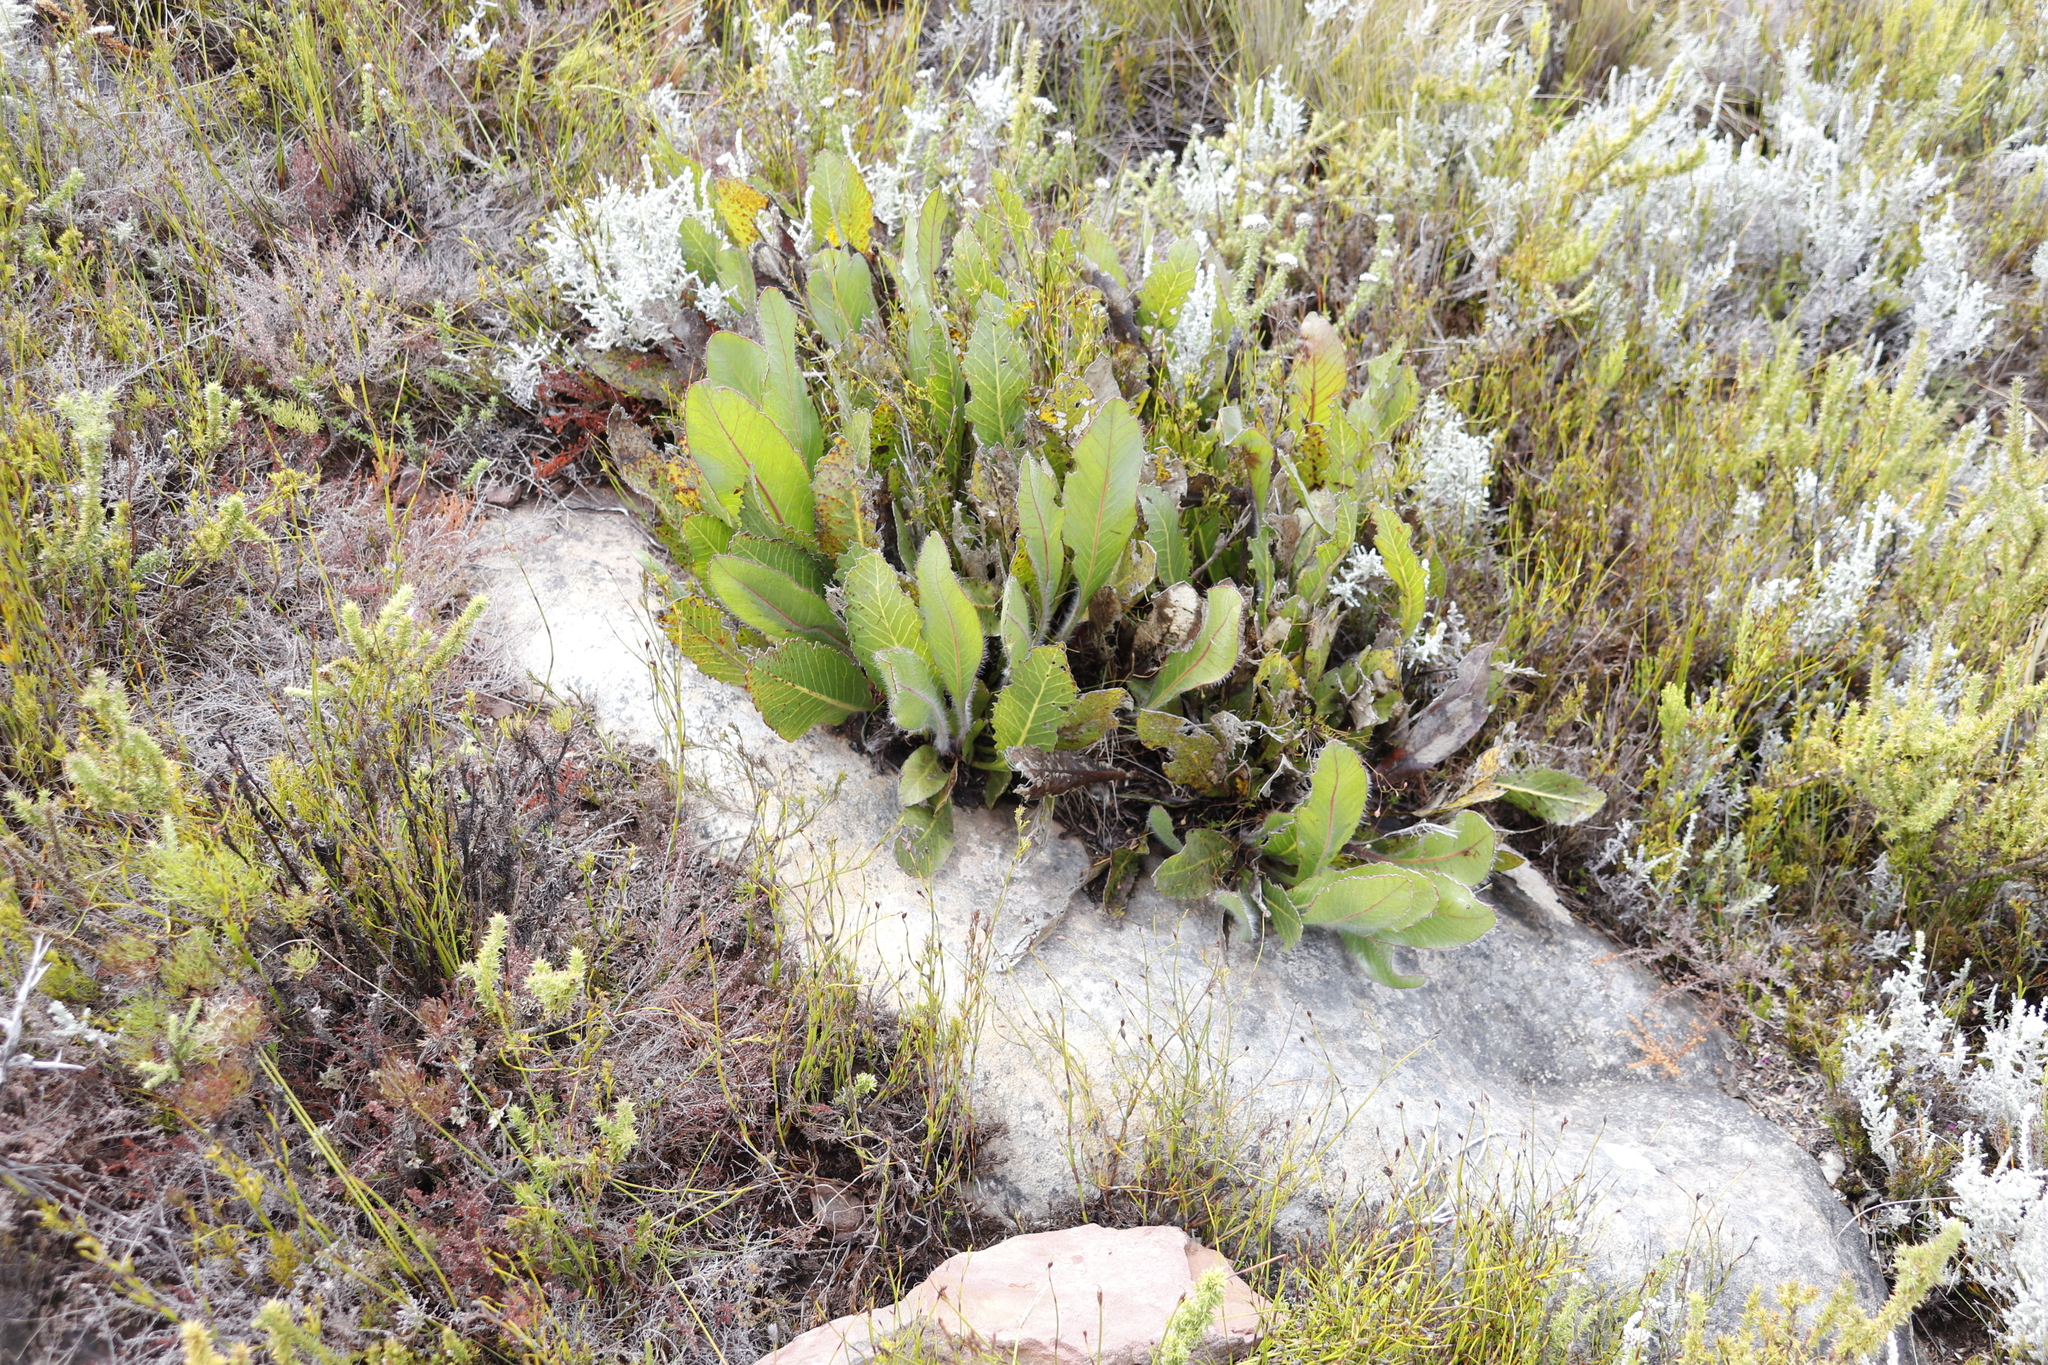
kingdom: Plantae
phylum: Tracheophyta
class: Magnoliopsida
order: Proteales
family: Proteaceae
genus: Protea
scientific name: Protea scolopendriifolia
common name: Harts-tongue-fern sugarbush
